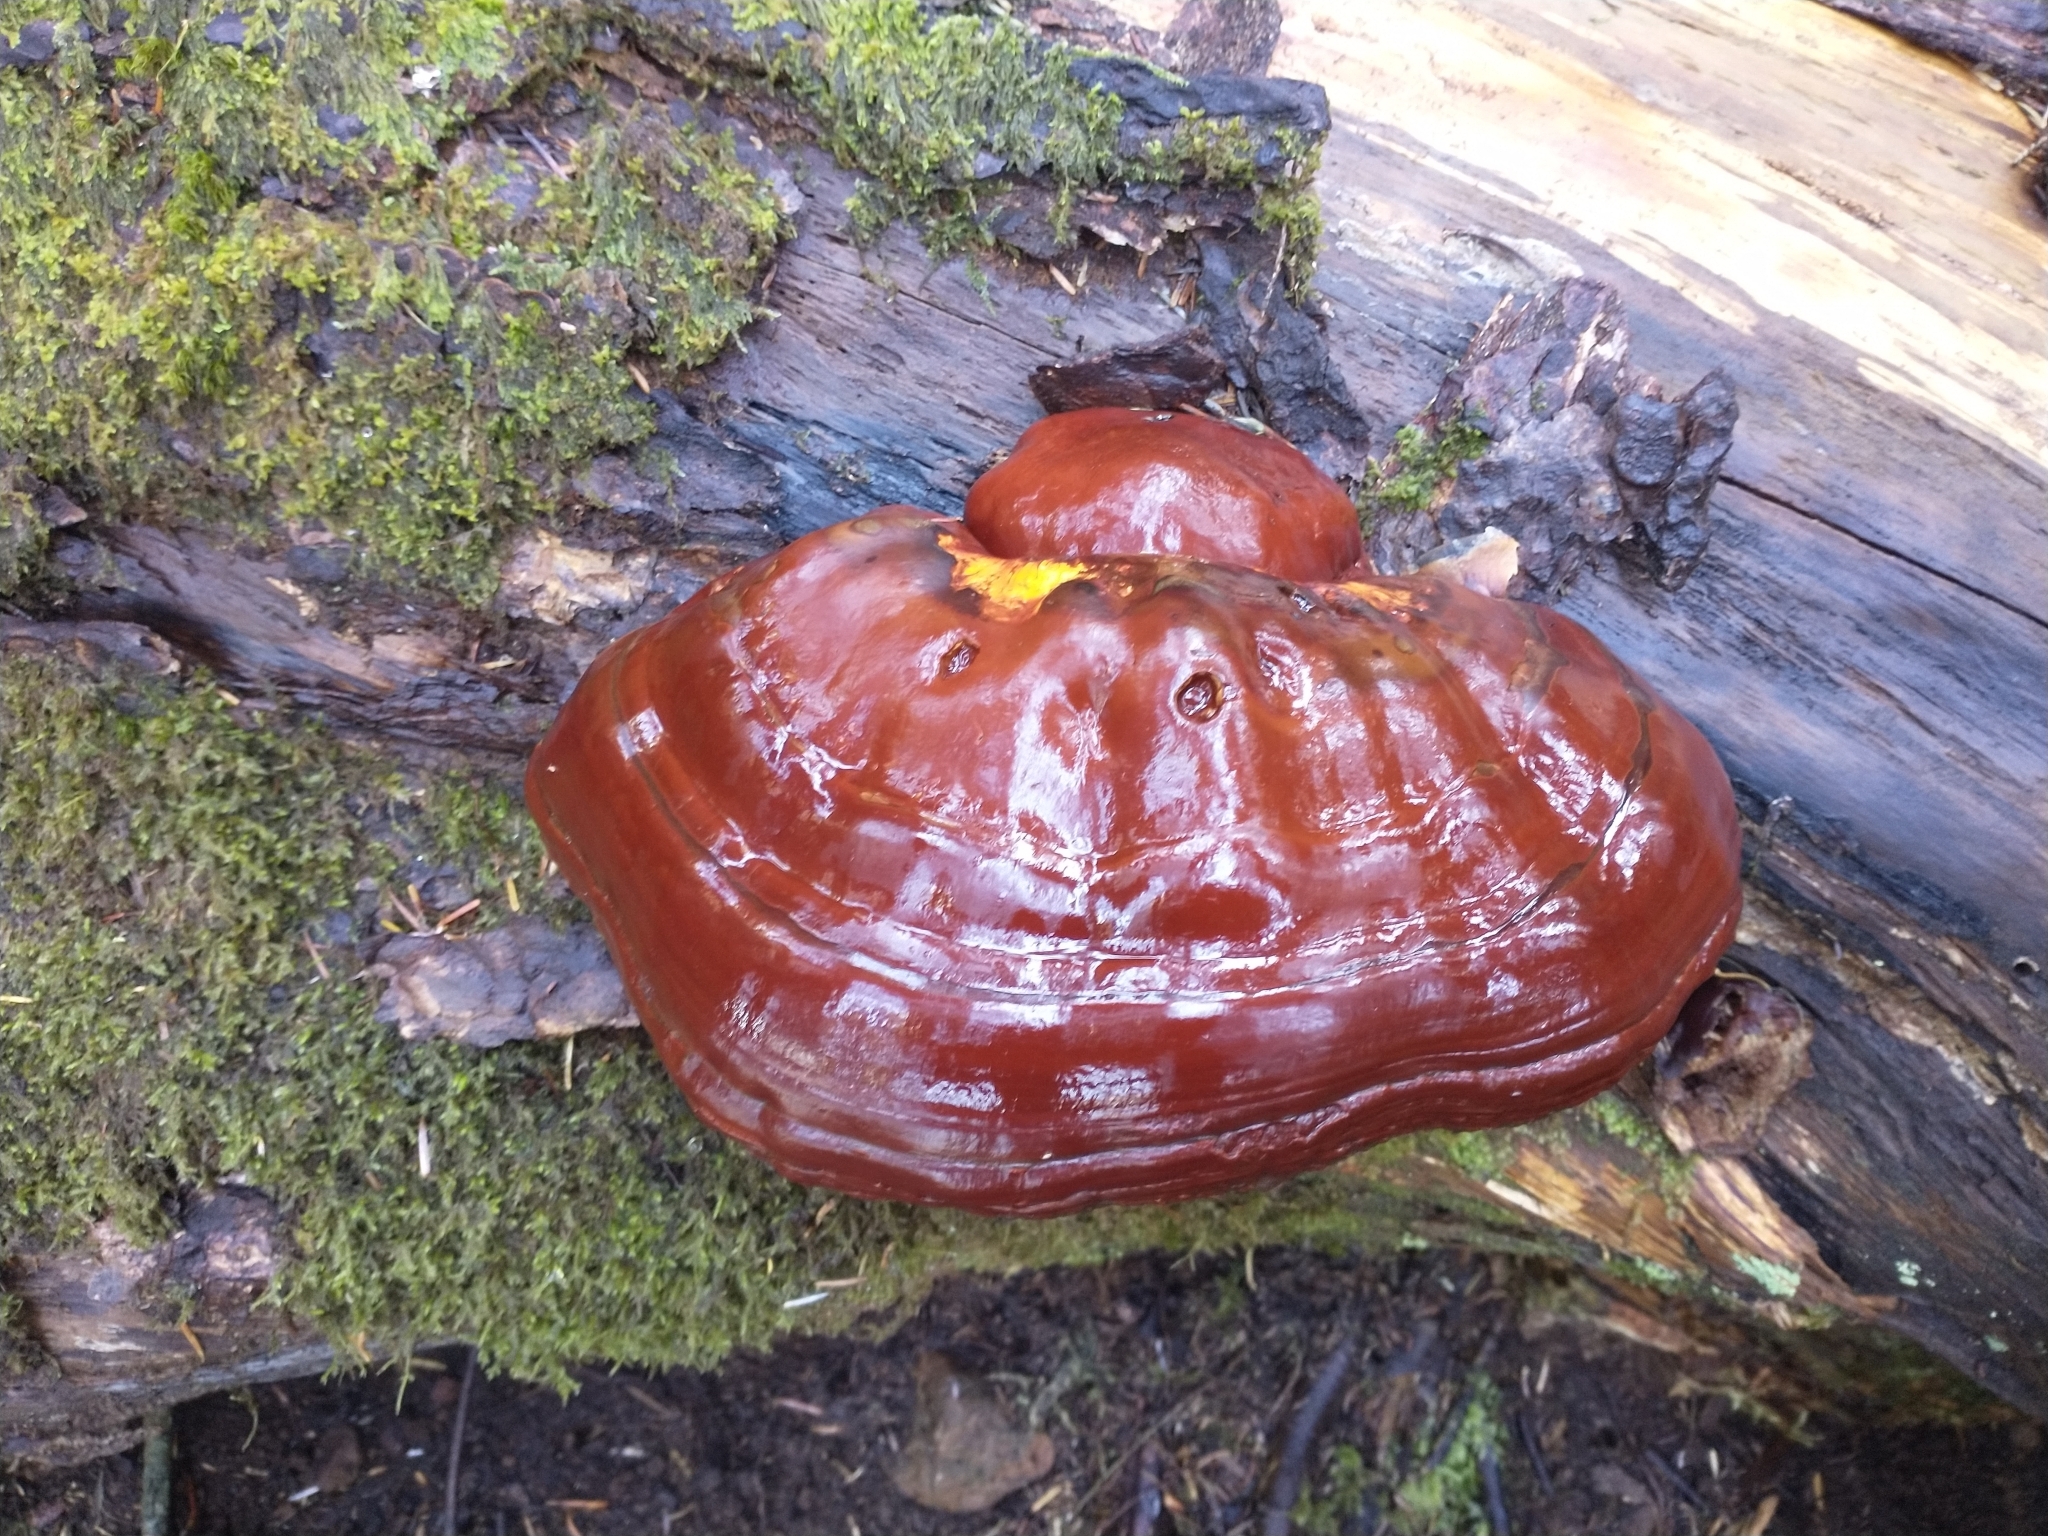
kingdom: Fungi
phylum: Basidiomycota
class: Agaricomycetes
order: Polyporales
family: Polyporaceae
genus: Ganoderma
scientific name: Ganoderma oregonense
